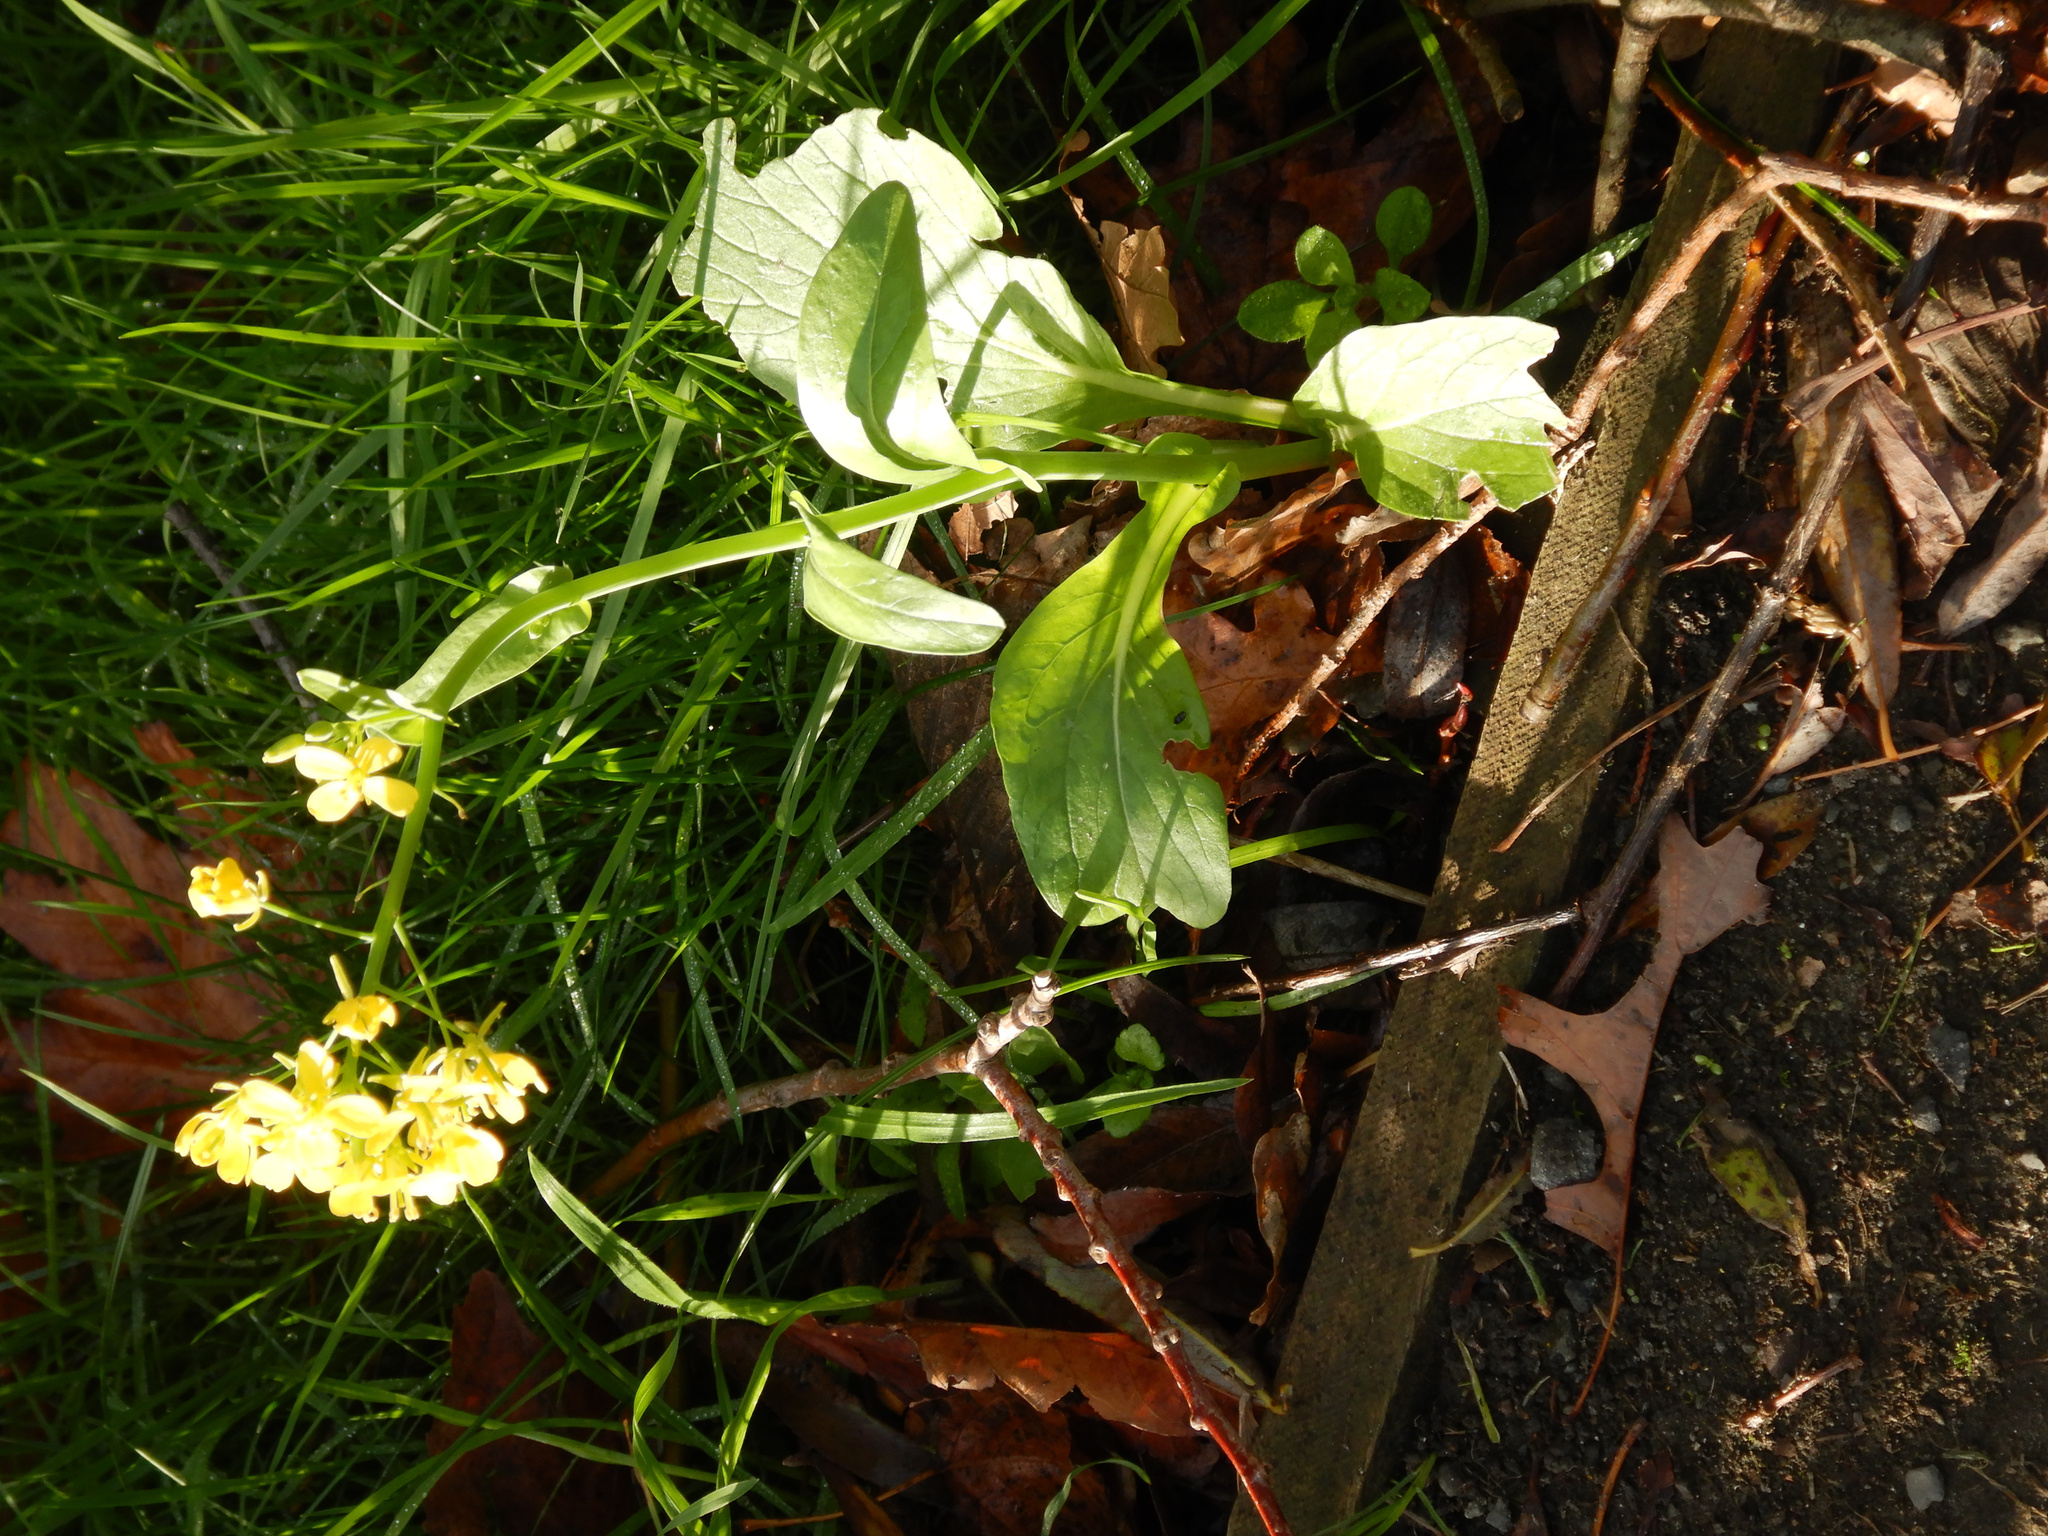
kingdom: Plantae
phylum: Tracheophyta
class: Magnoliopsida
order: Brassicales
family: Brassicaceae
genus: Brassica
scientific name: Brassica rapa
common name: Field mustard
